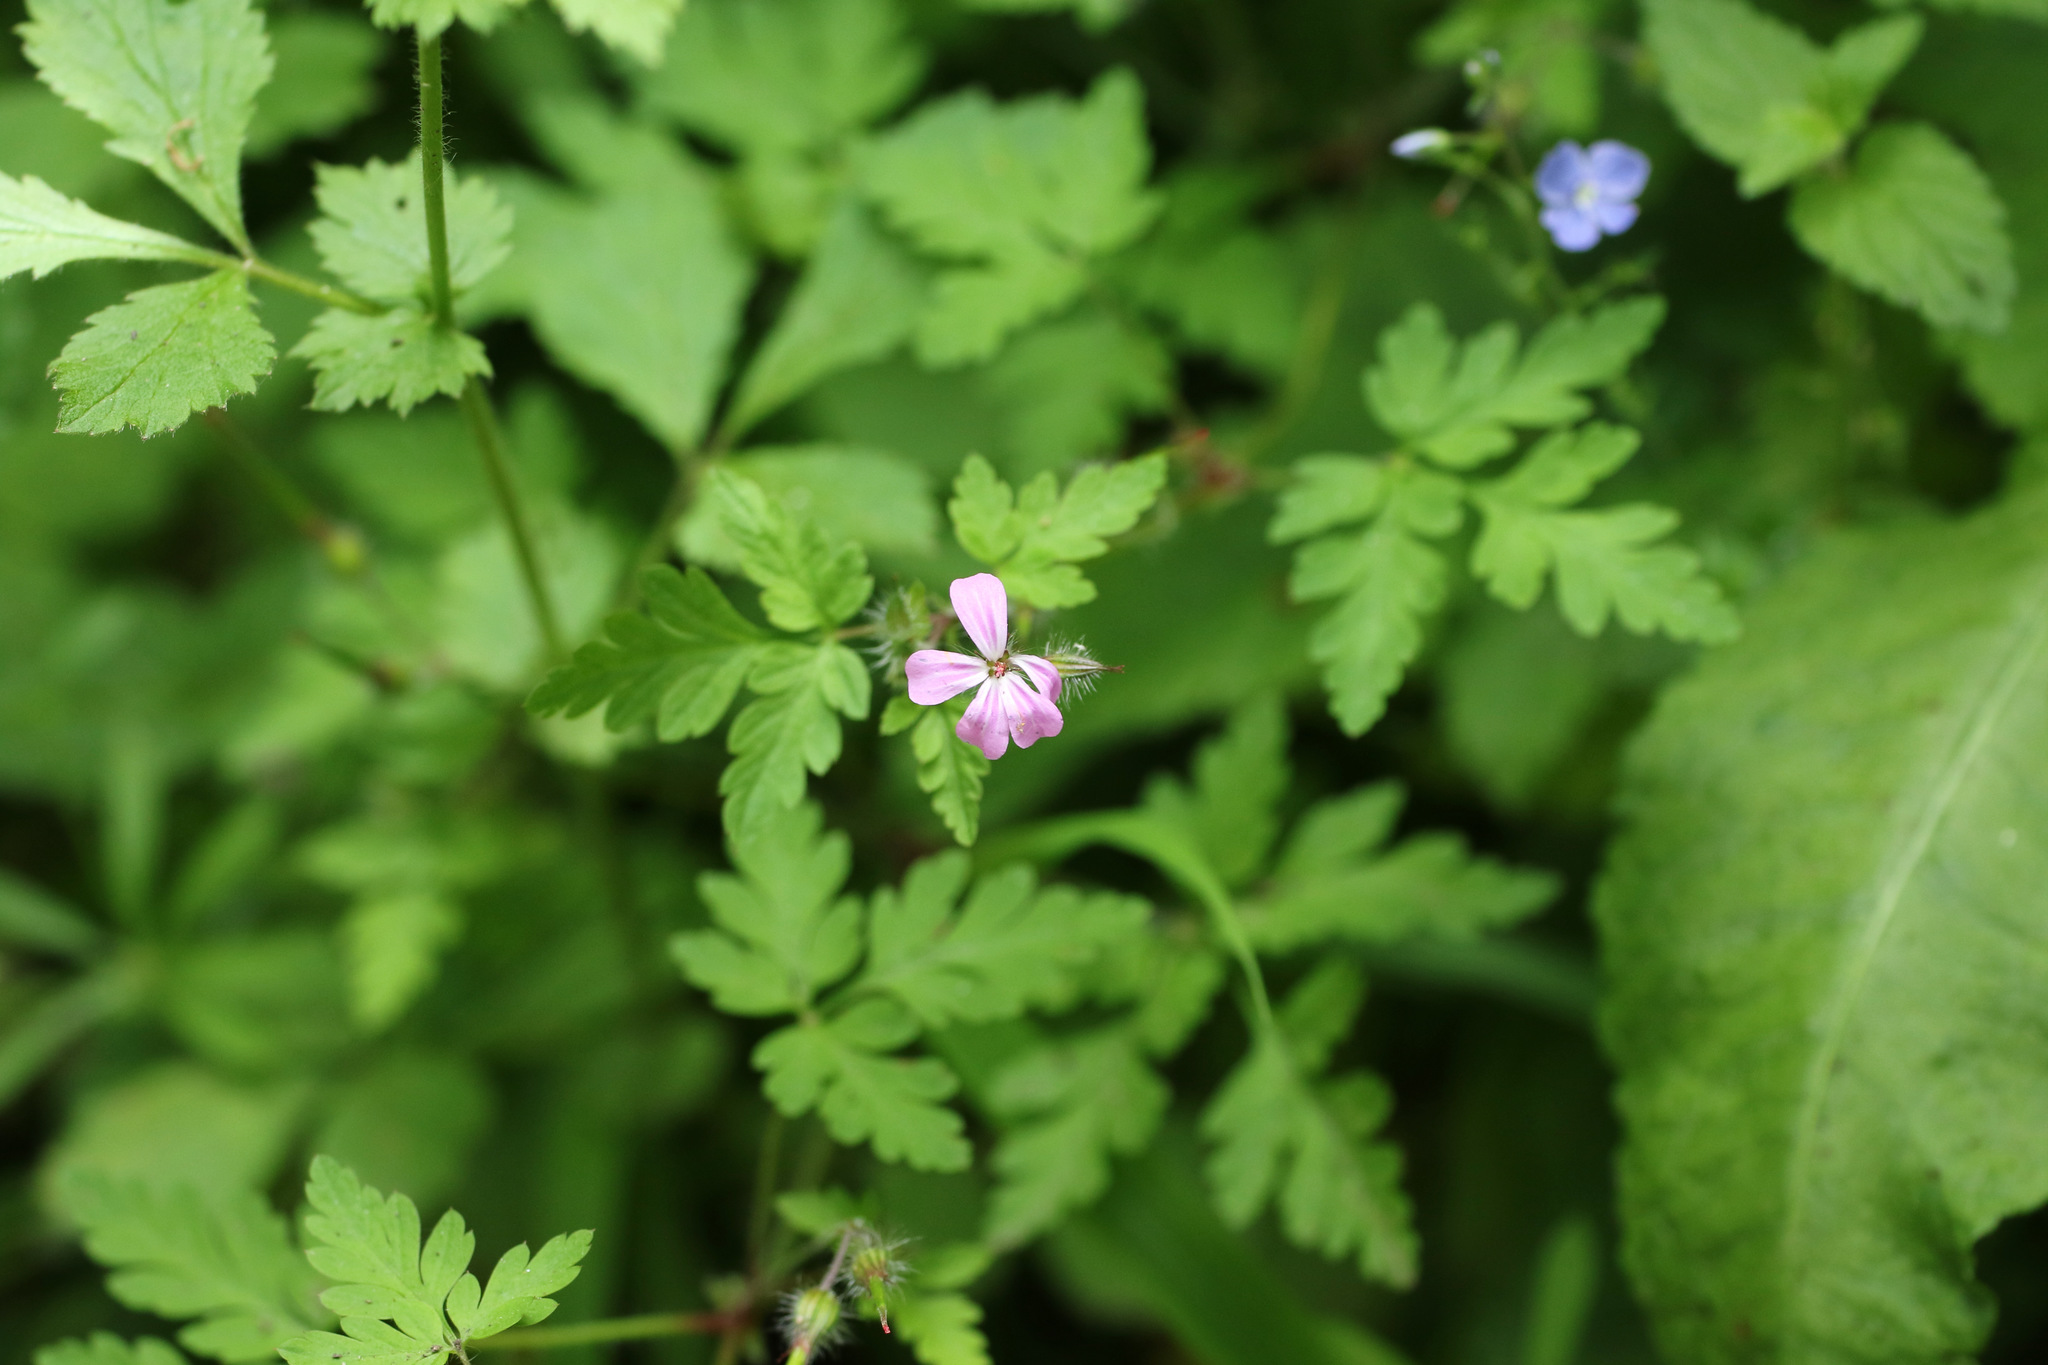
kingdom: Plantae
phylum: Tracheophyta
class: Magnoliopsida
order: Geraniales
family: Geraniaceae
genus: Geranium
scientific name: Geranium robertianum
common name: Herb-robert
